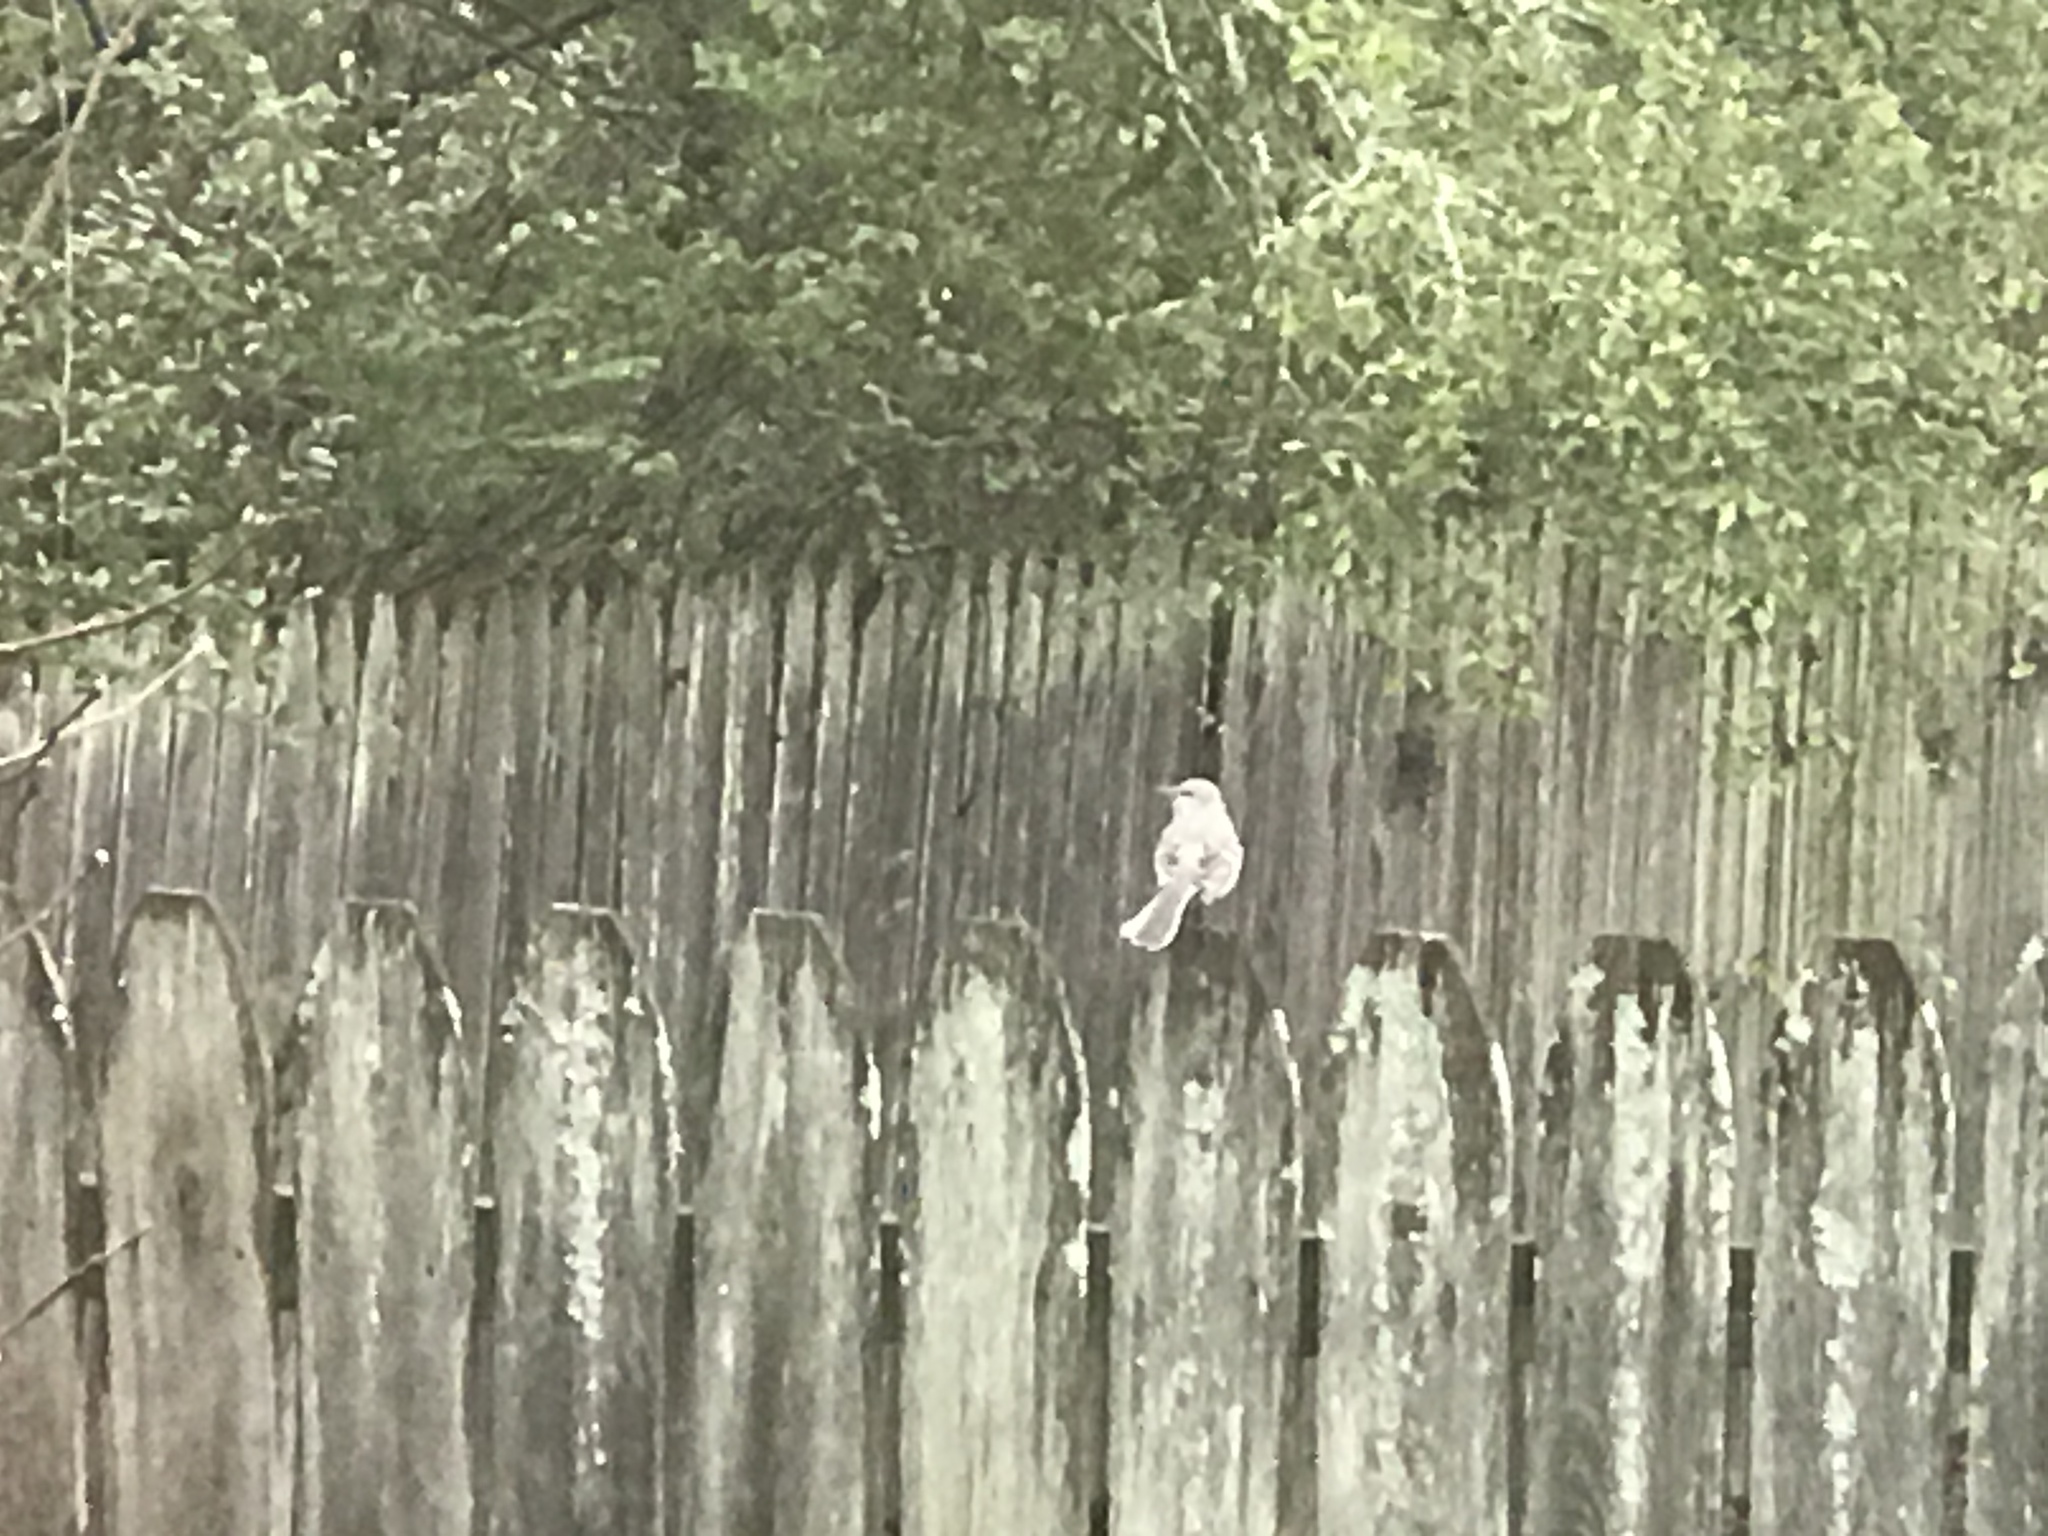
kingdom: Animalia
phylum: Chordata
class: Aves
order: Passeriformes
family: Mimidae
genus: Mimus
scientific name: Mimus polyglottos
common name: Northern mockingbird
